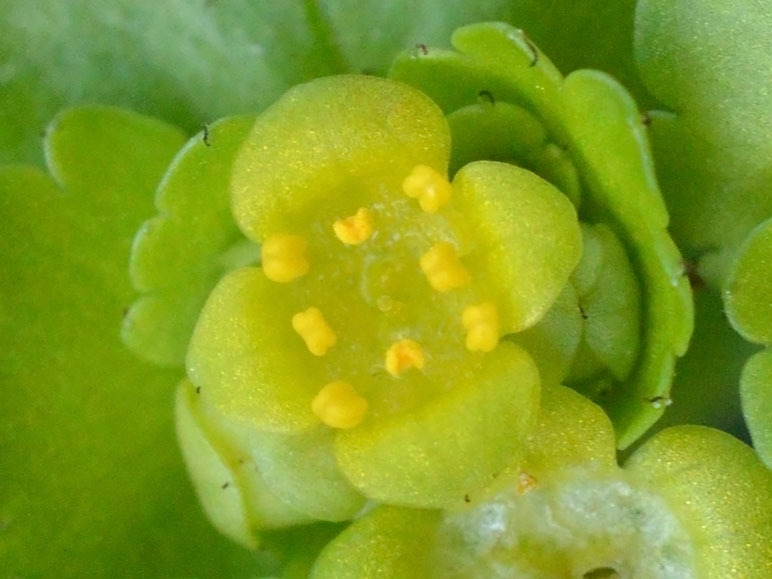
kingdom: Plantae
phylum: Tracheophyta
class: Magnoliopsida
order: Saxifragales
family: Saxifragaceae
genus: Chrysosplenium
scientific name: Chrysosplenium alternifolium
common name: Alternate-leaved golden-saxifrage
